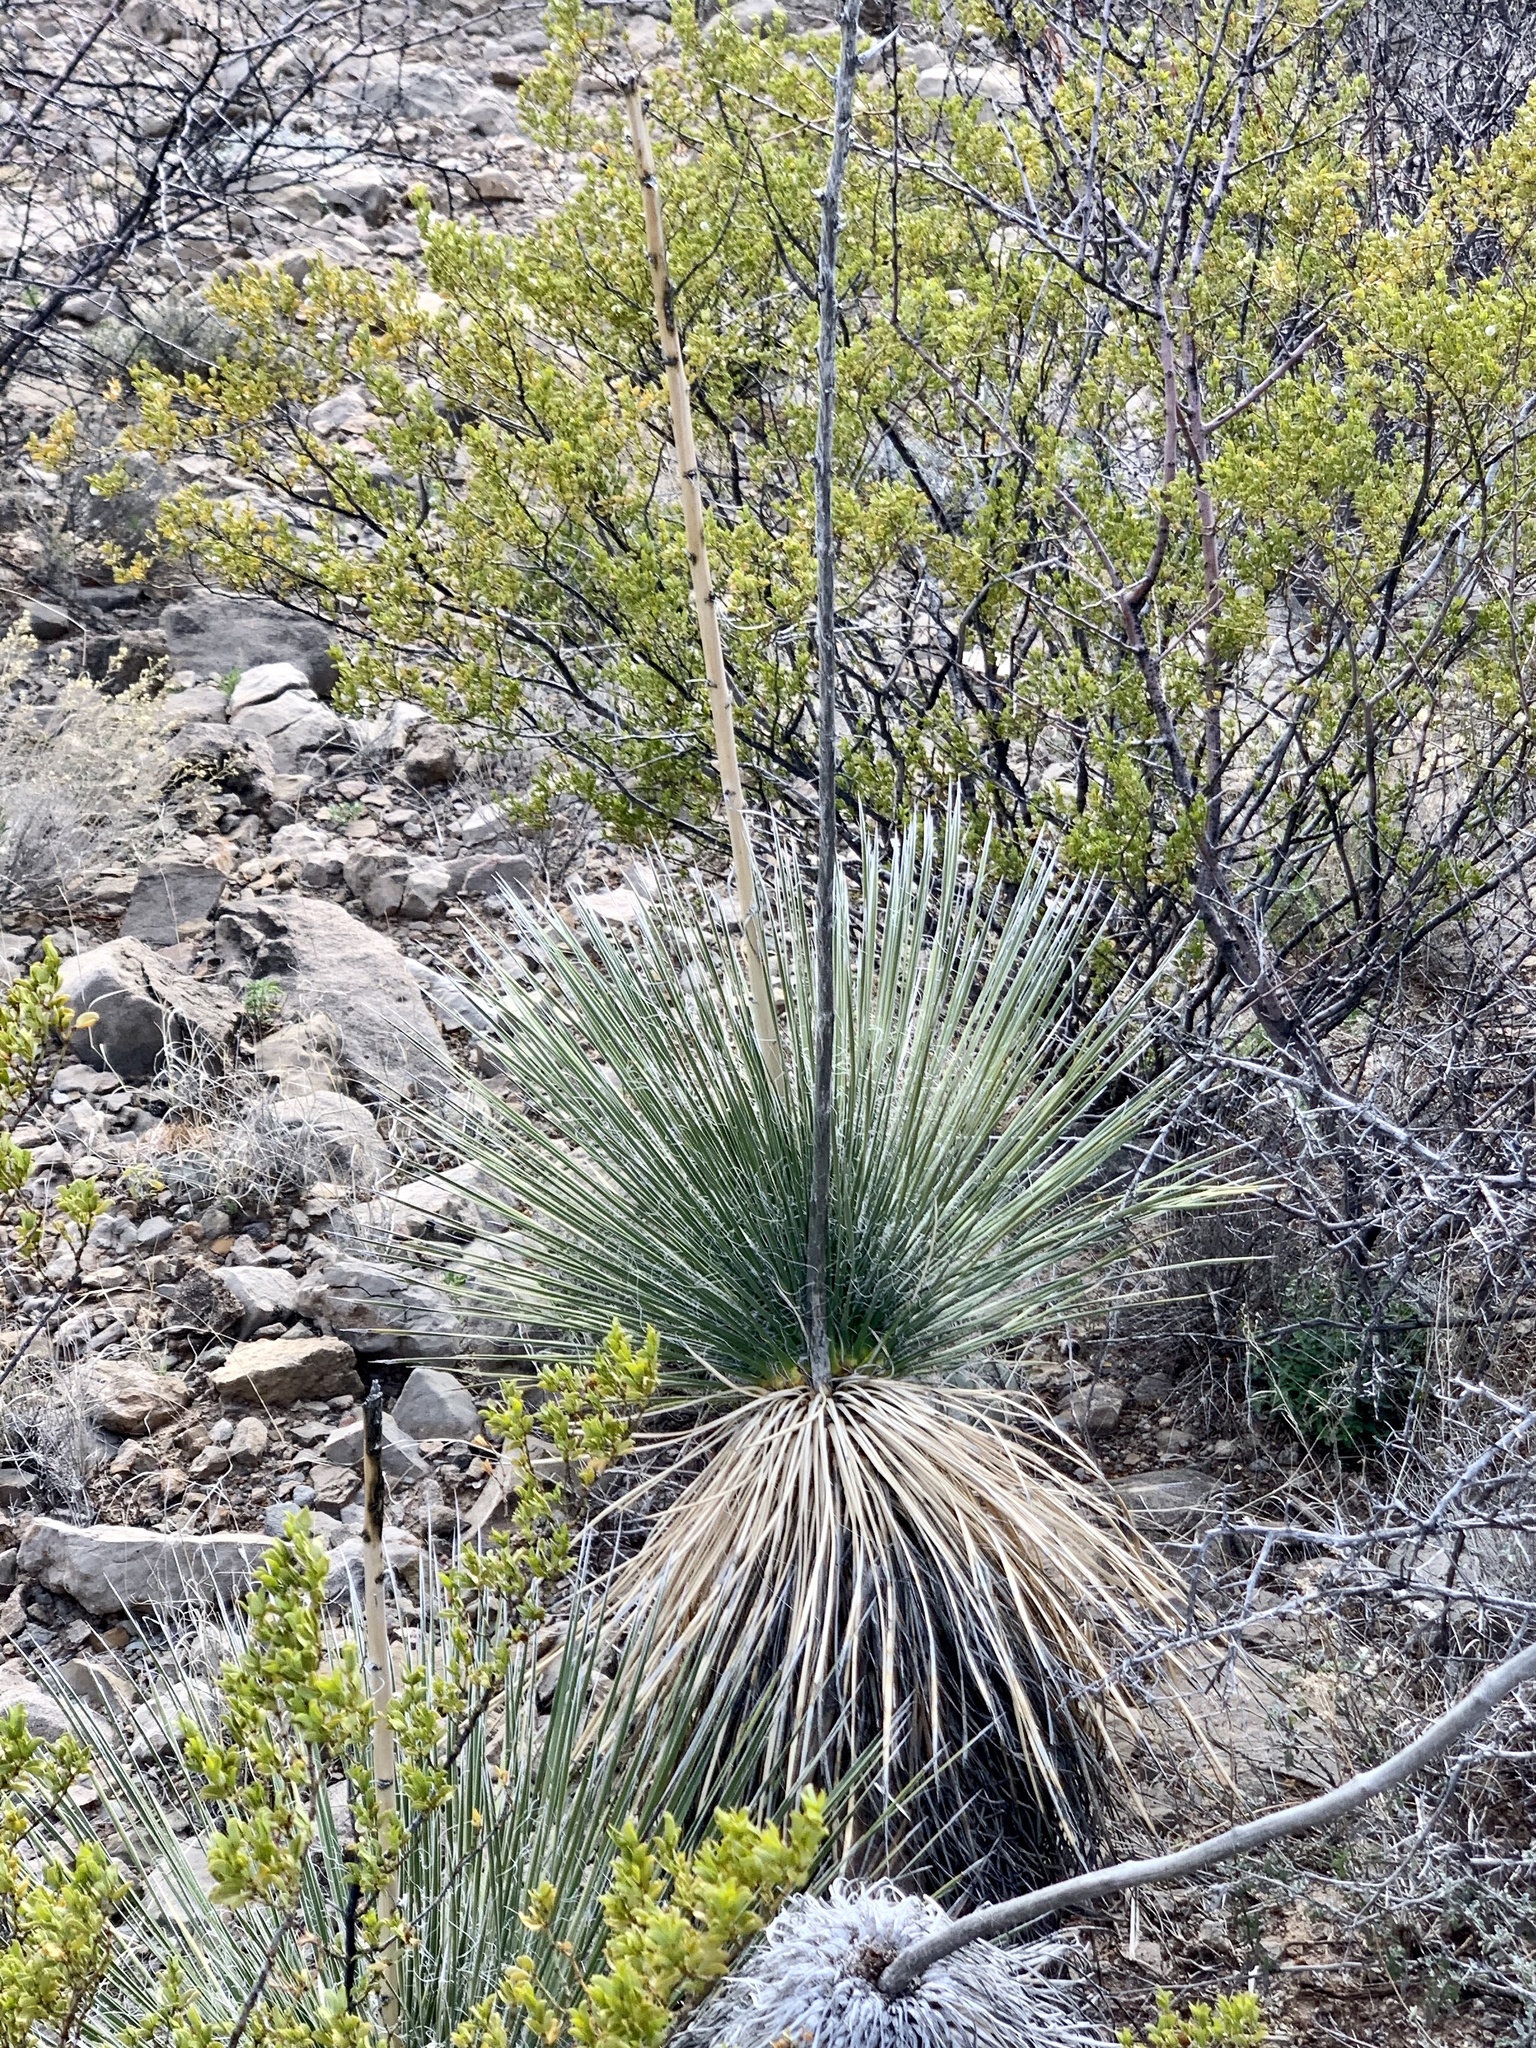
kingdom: Plantae
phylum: Tracheophyta
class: Liliopsida
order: Asparagales
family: Asparagaceae
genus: Yucca
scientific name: Yucca elata
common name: Palmella
